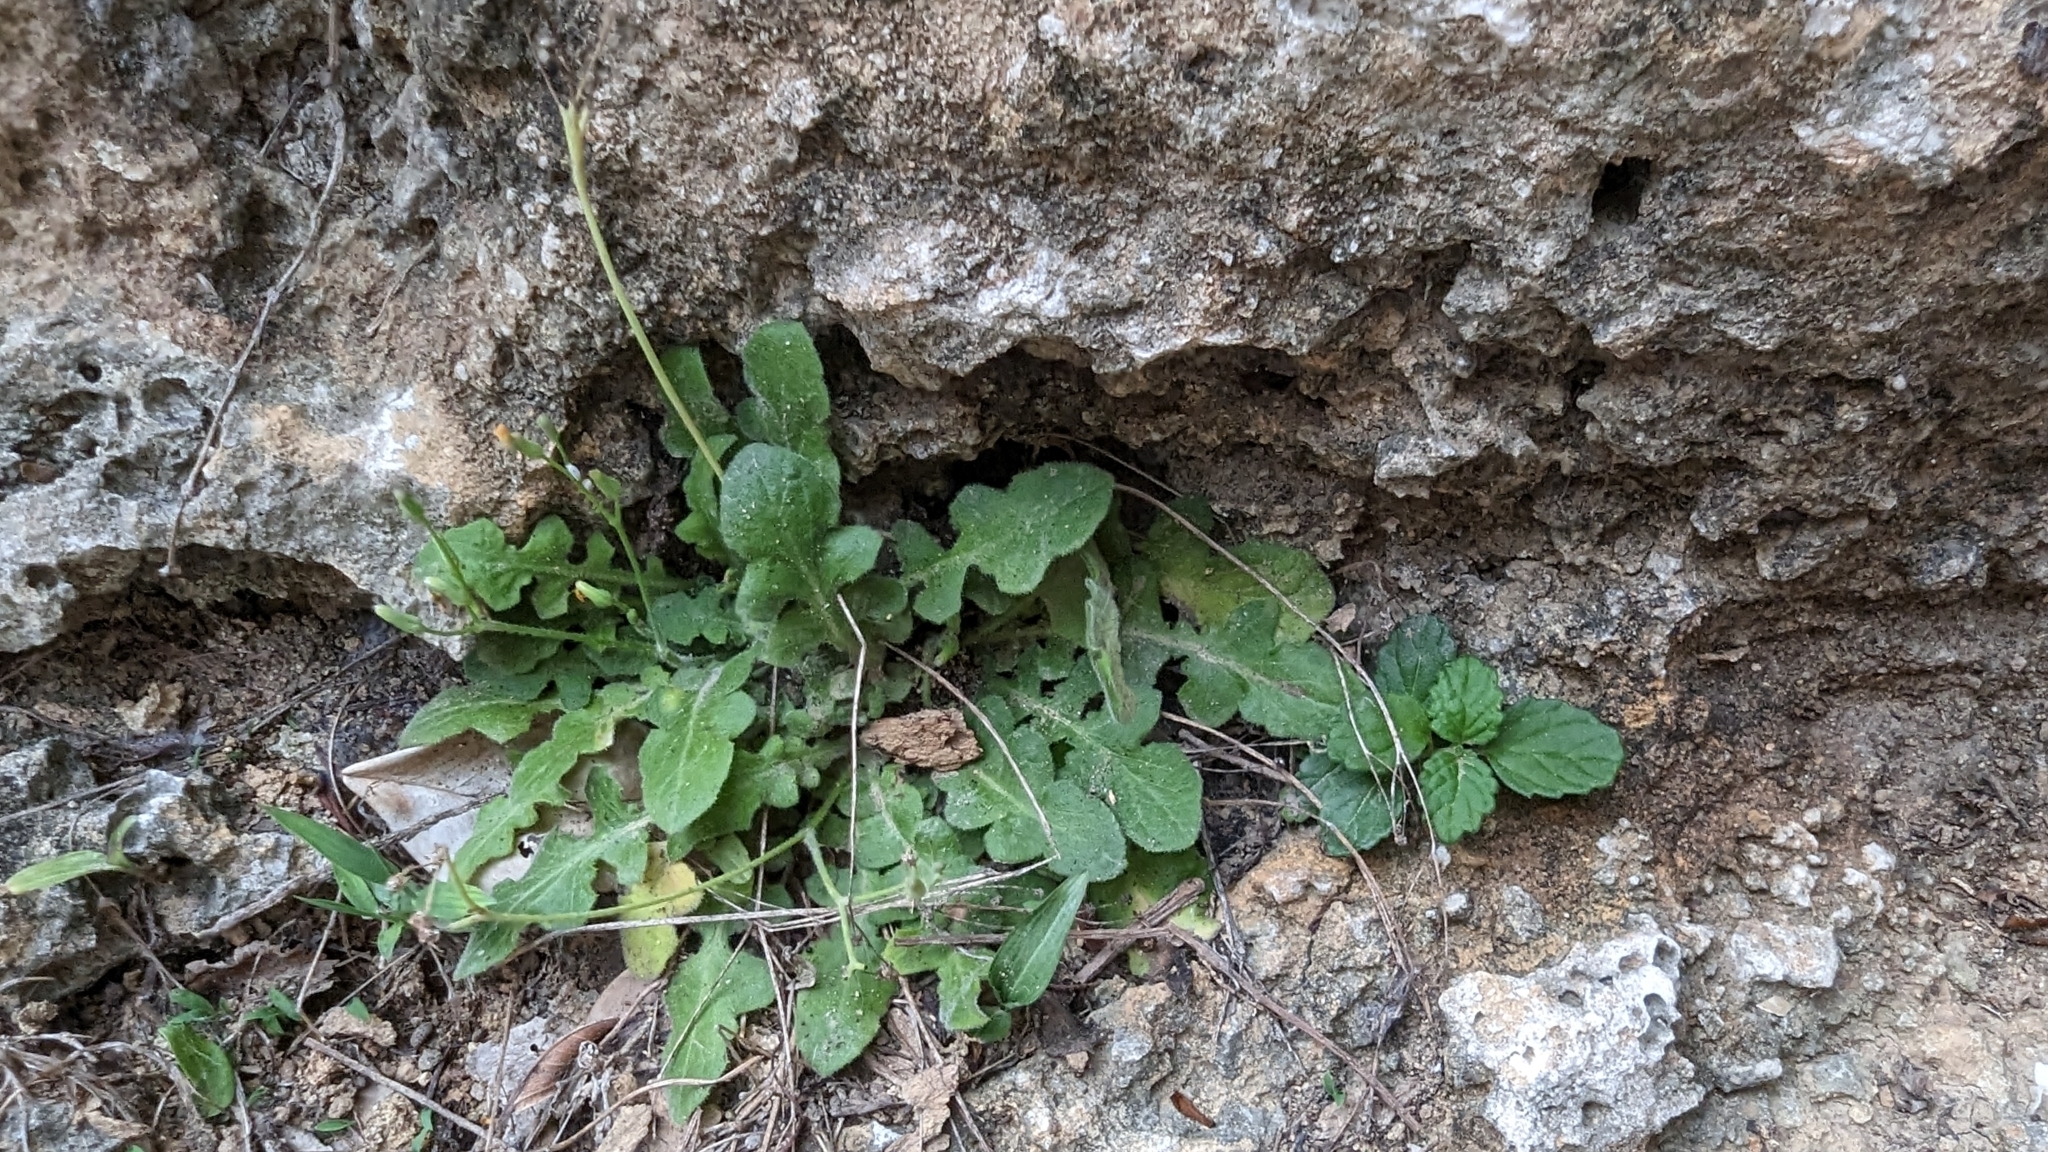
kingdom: Plantae
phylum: Tracheophyta
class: Magnoliopsida
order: Asterales
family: Asteraceae
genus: Youngia
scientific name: Youngia japonica
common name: Oriental false hawksbeard
